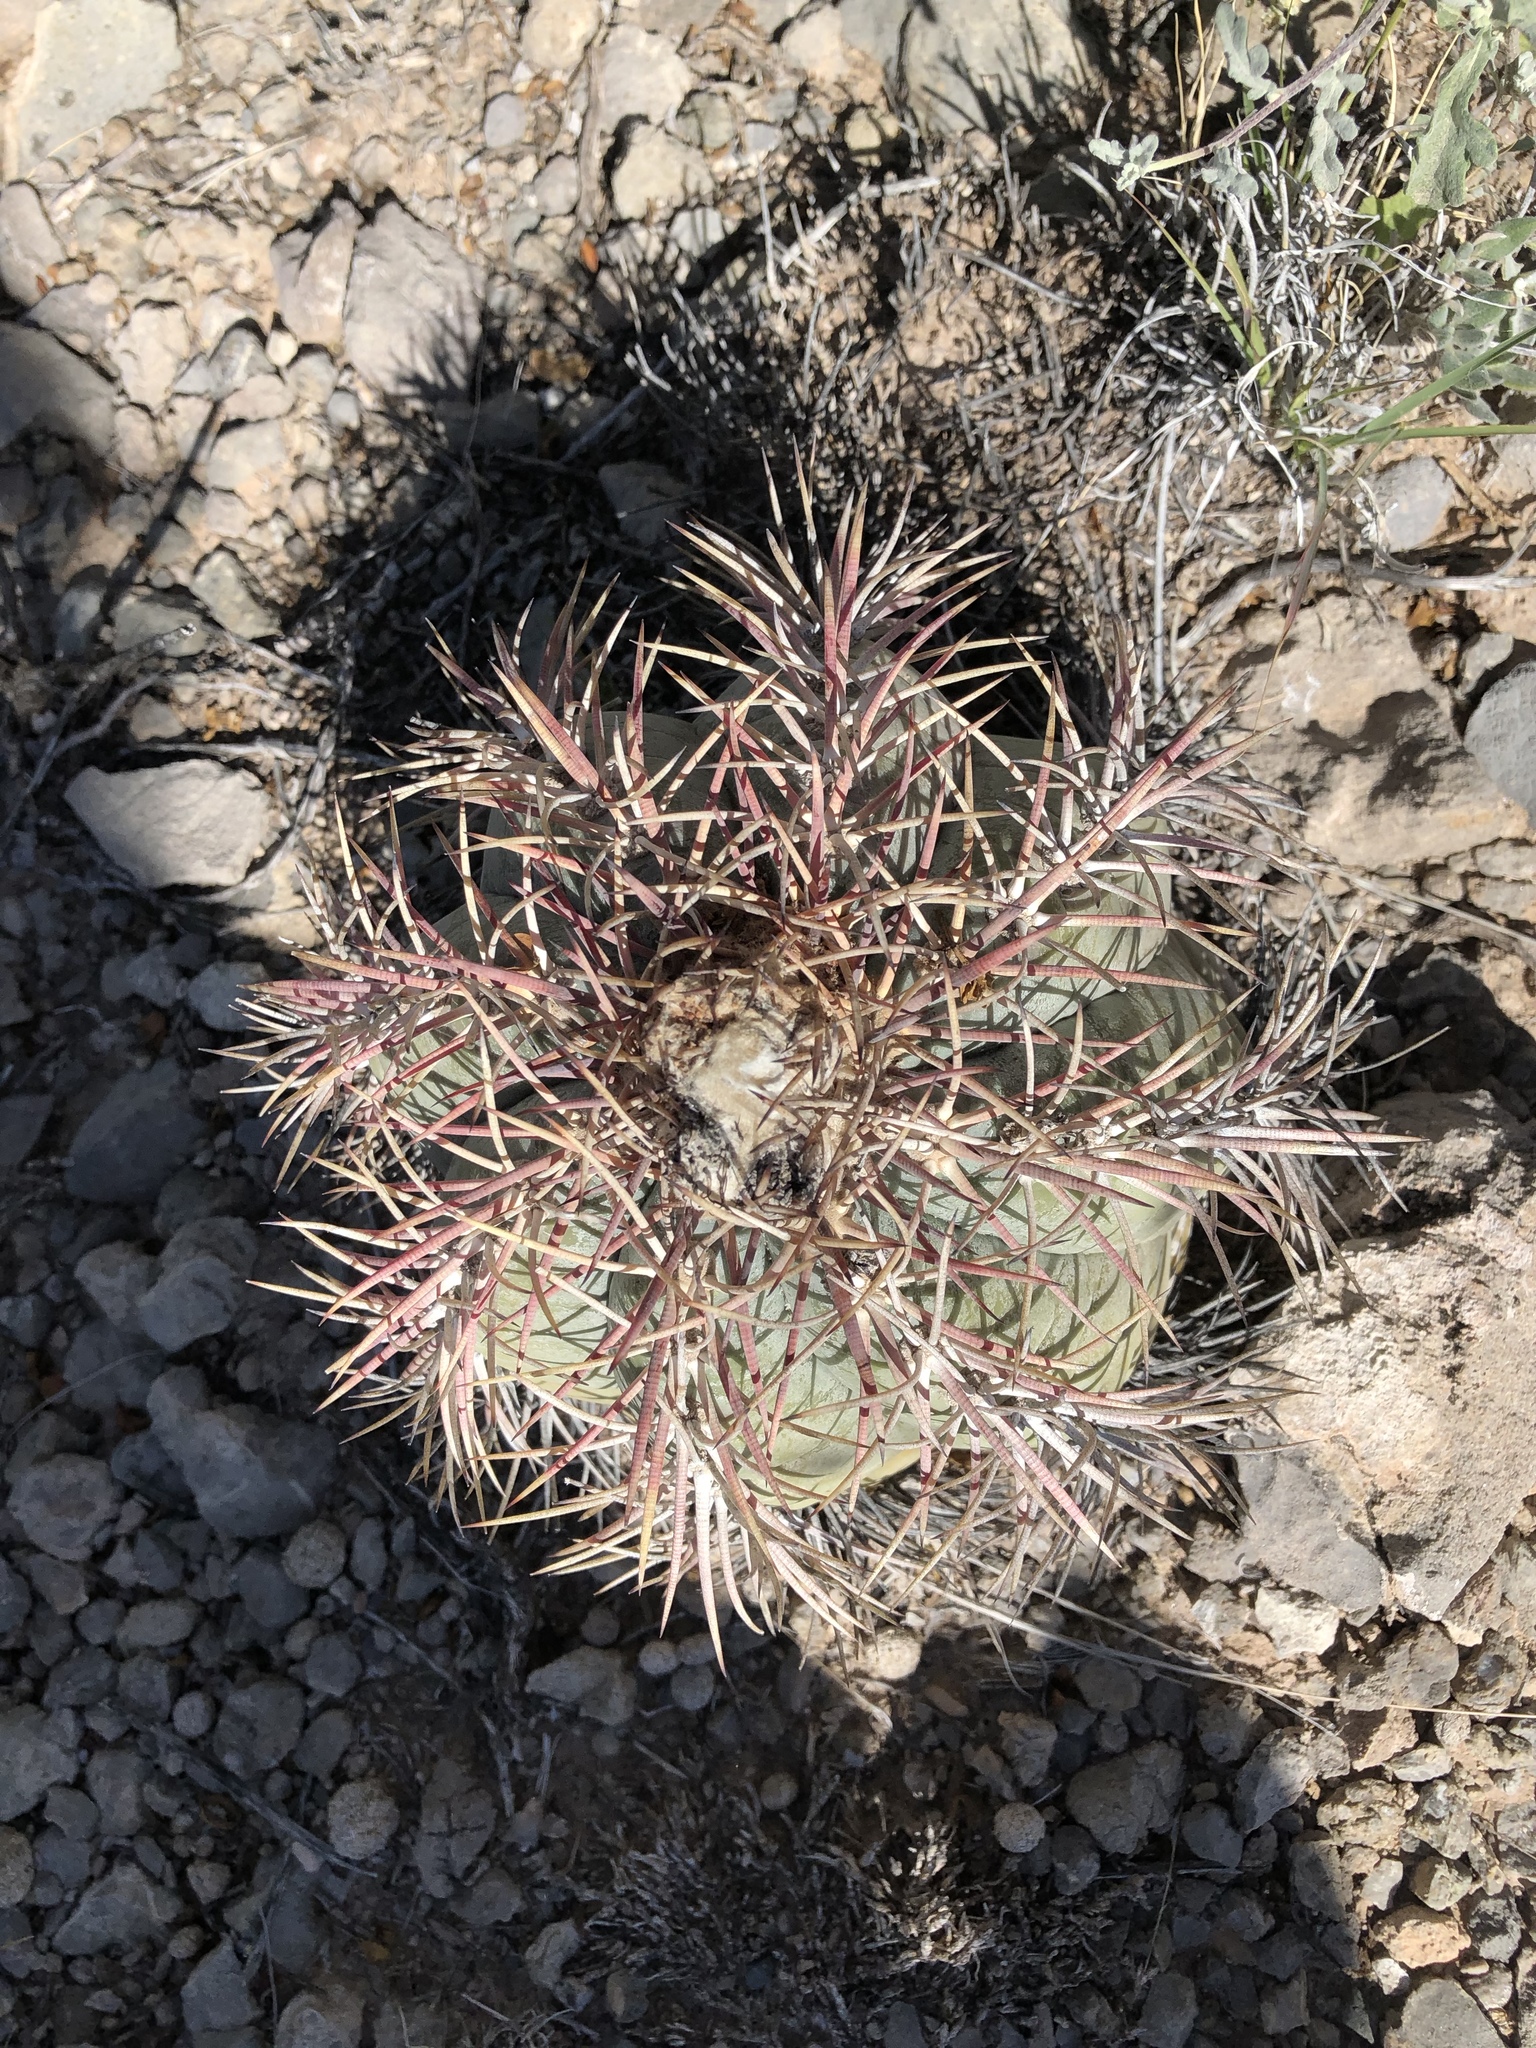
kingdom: Plantae
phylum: Tracheophyta
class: Magnoliopsida
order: Caryophyllales
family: Cactaceae
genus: Echinocactus
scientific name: Echinocactus horizonthalonius
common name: Devilshead
